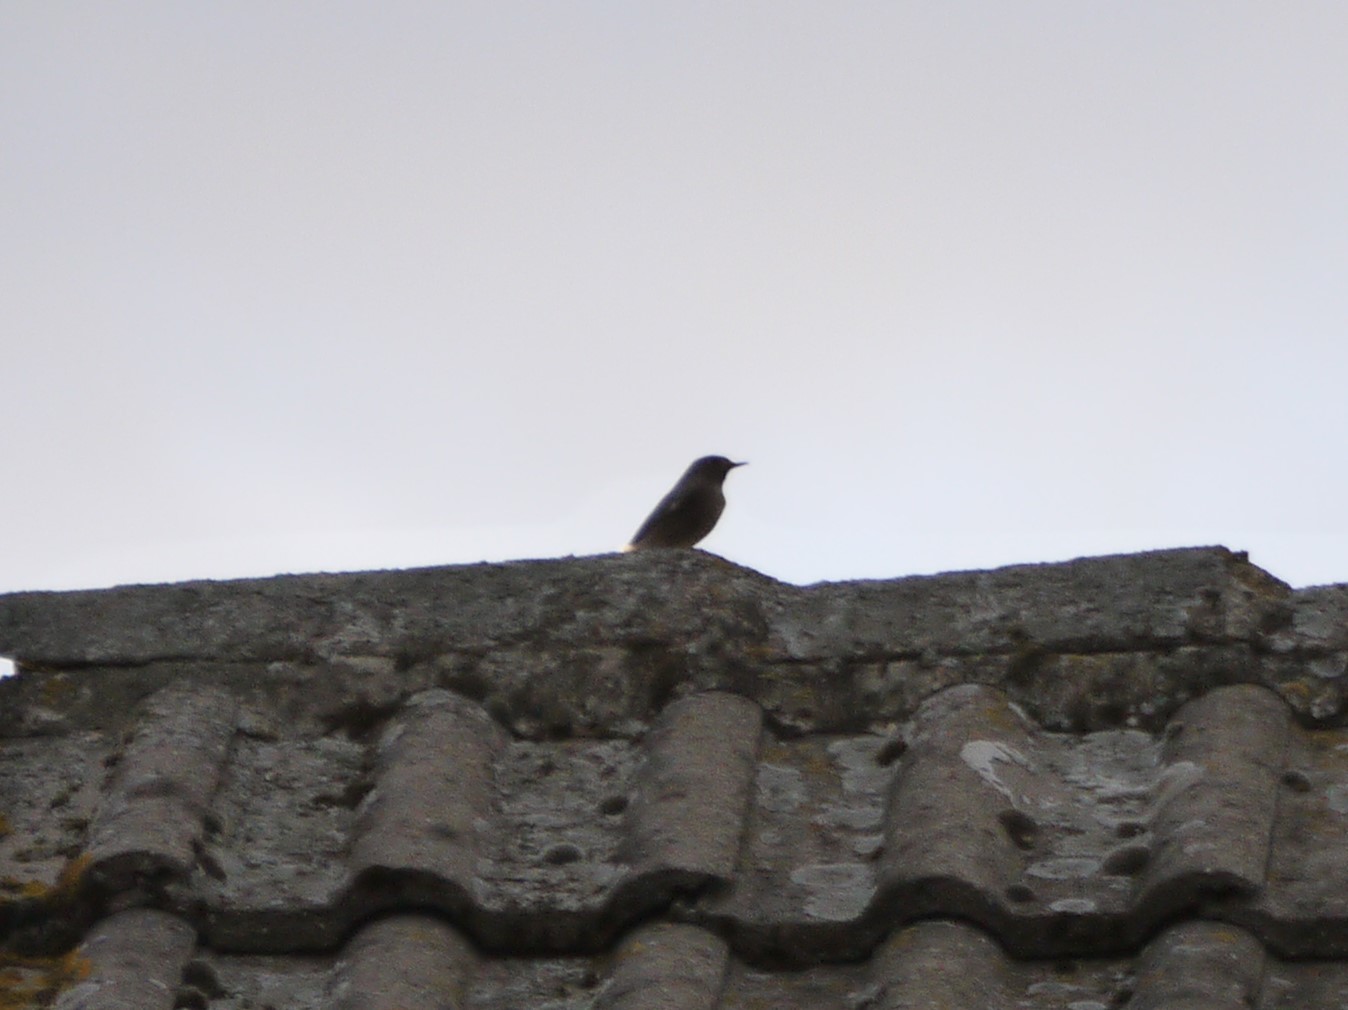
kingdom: Animalia
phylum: Chordata
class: Aves
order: Passeriformes
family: Muscicapidae
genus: Phoenicurus
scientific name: Phoenicurus ochruros
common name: Black redstart
